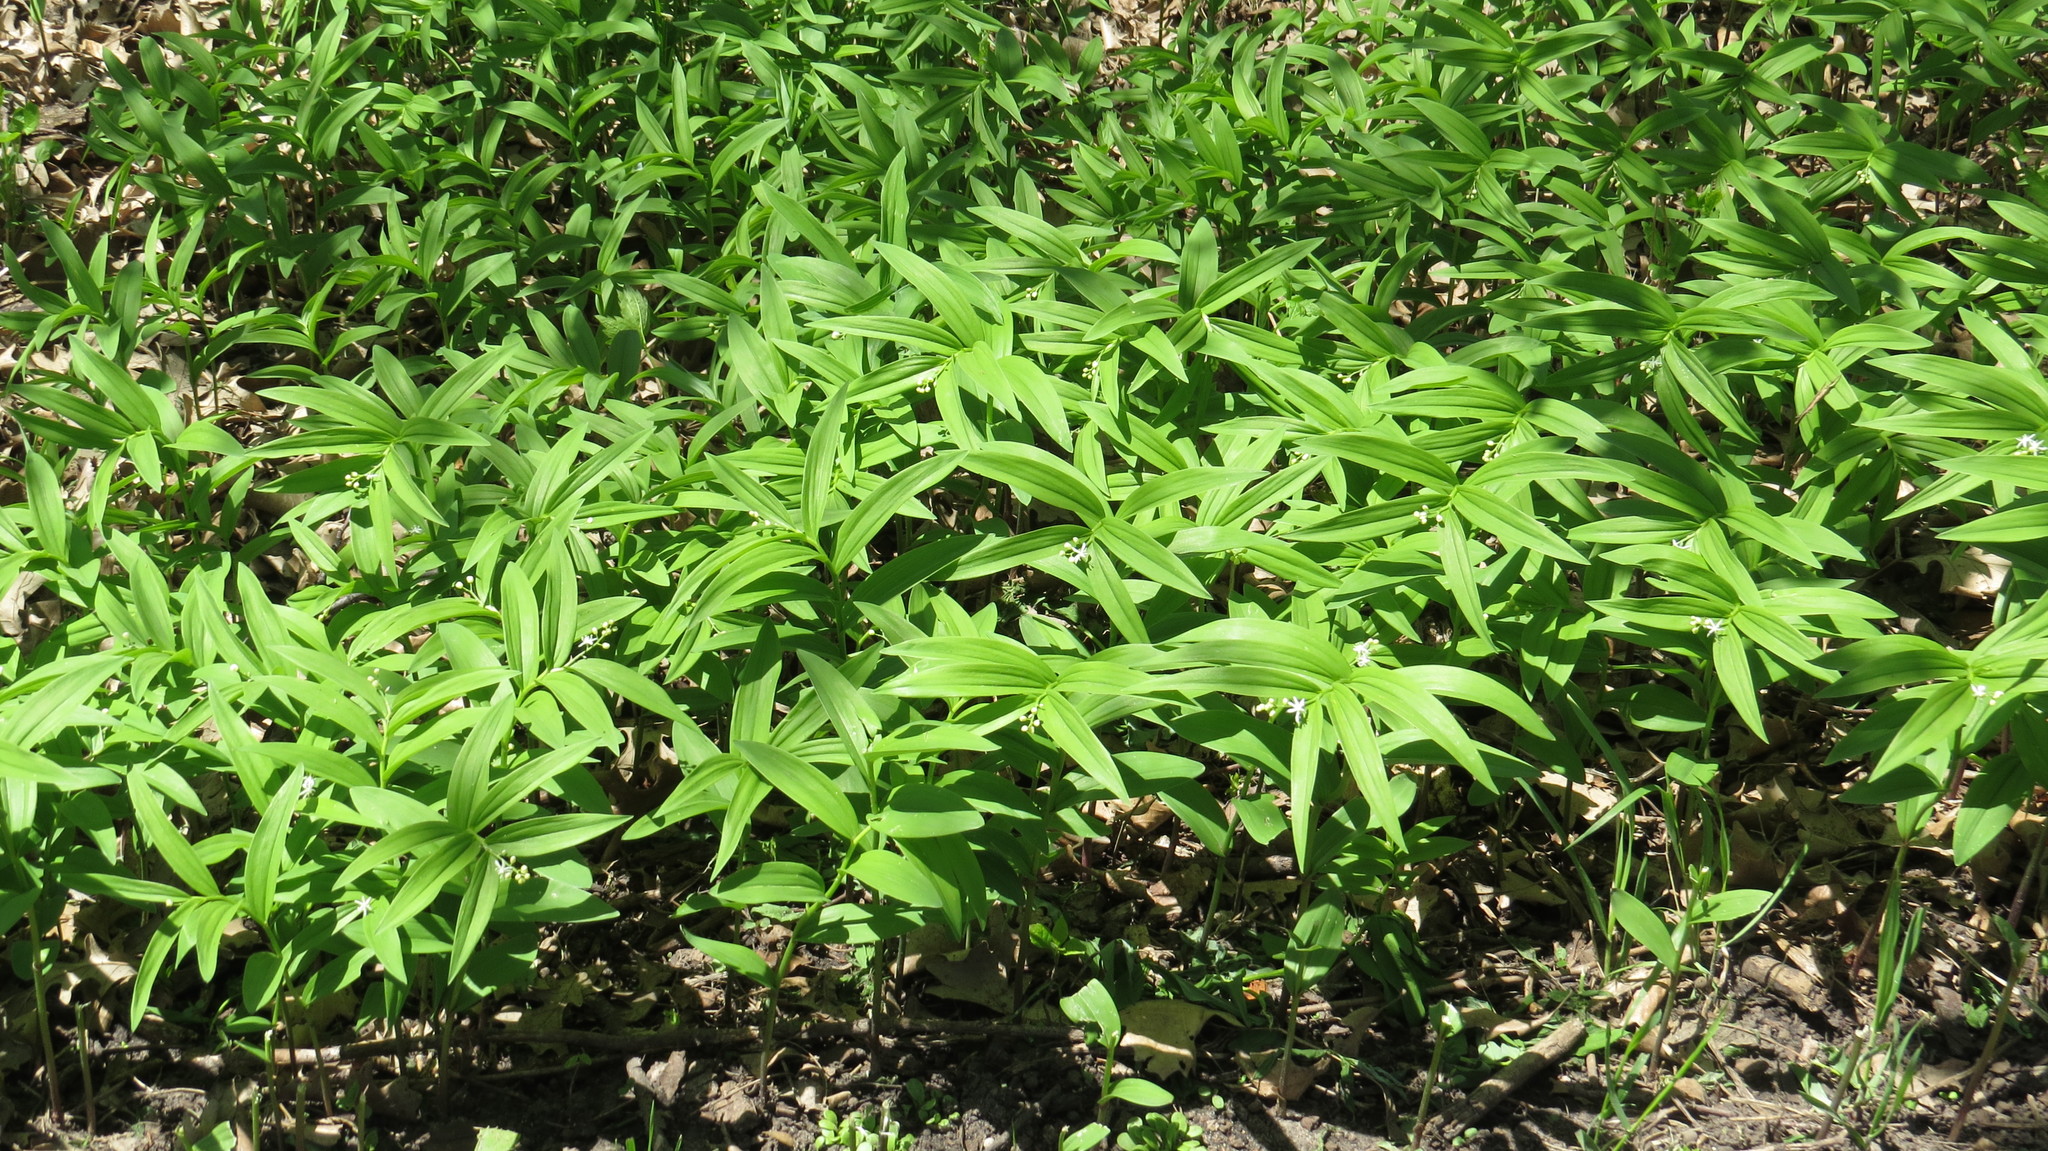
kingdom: Plantae
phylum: Tracheophyta
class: Liliopsida
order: Asparagales
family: Asparagaceae
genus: Maianthemum
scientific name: Maianthemum stellatum
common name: Little false solomon's seal
